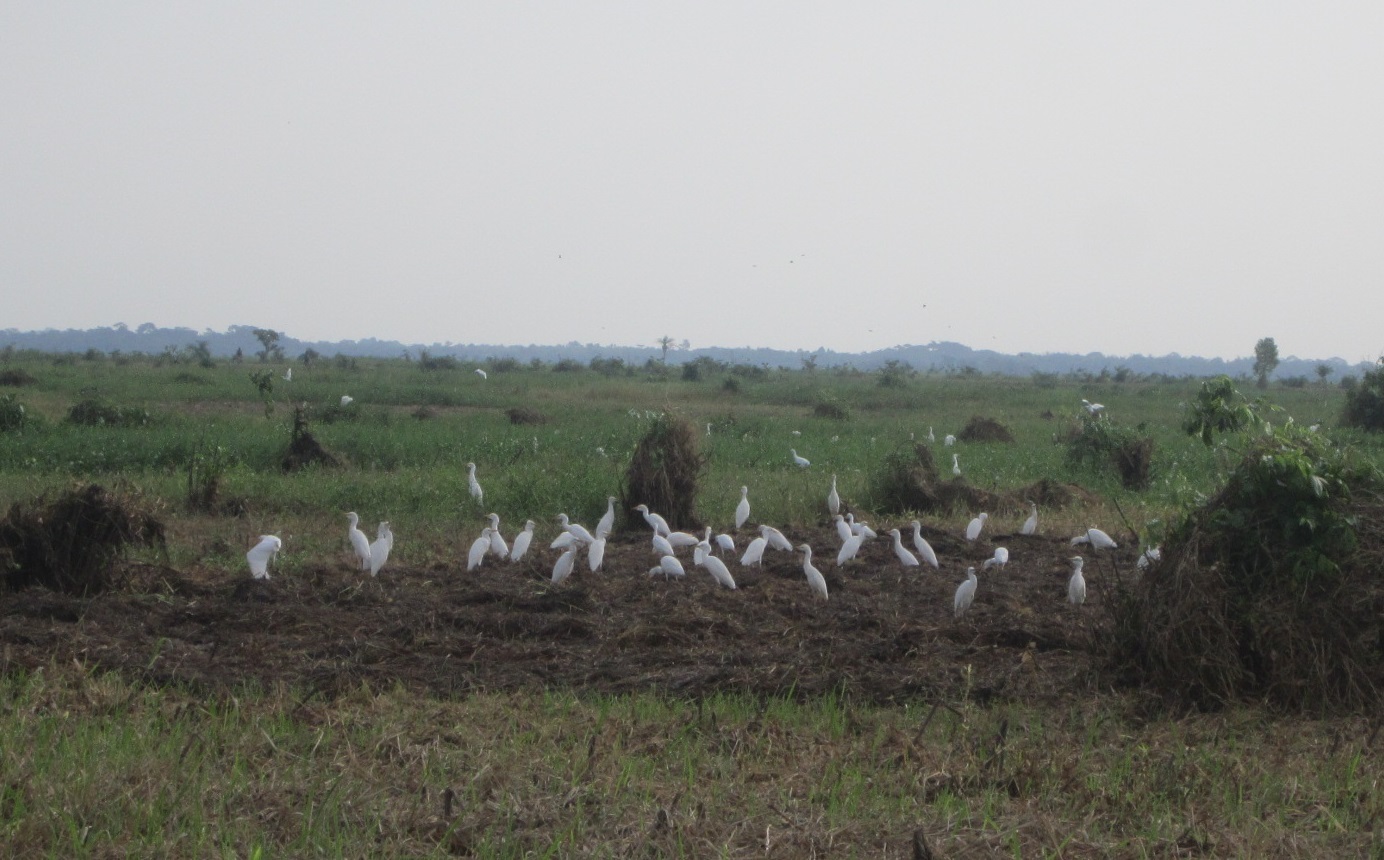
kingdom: Animalia
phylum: Chordata
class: Aves
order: Pelecaniformes
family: Ardeidae
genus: Bubulcus
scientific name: Bubulcus ibis
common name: Cattle egret
